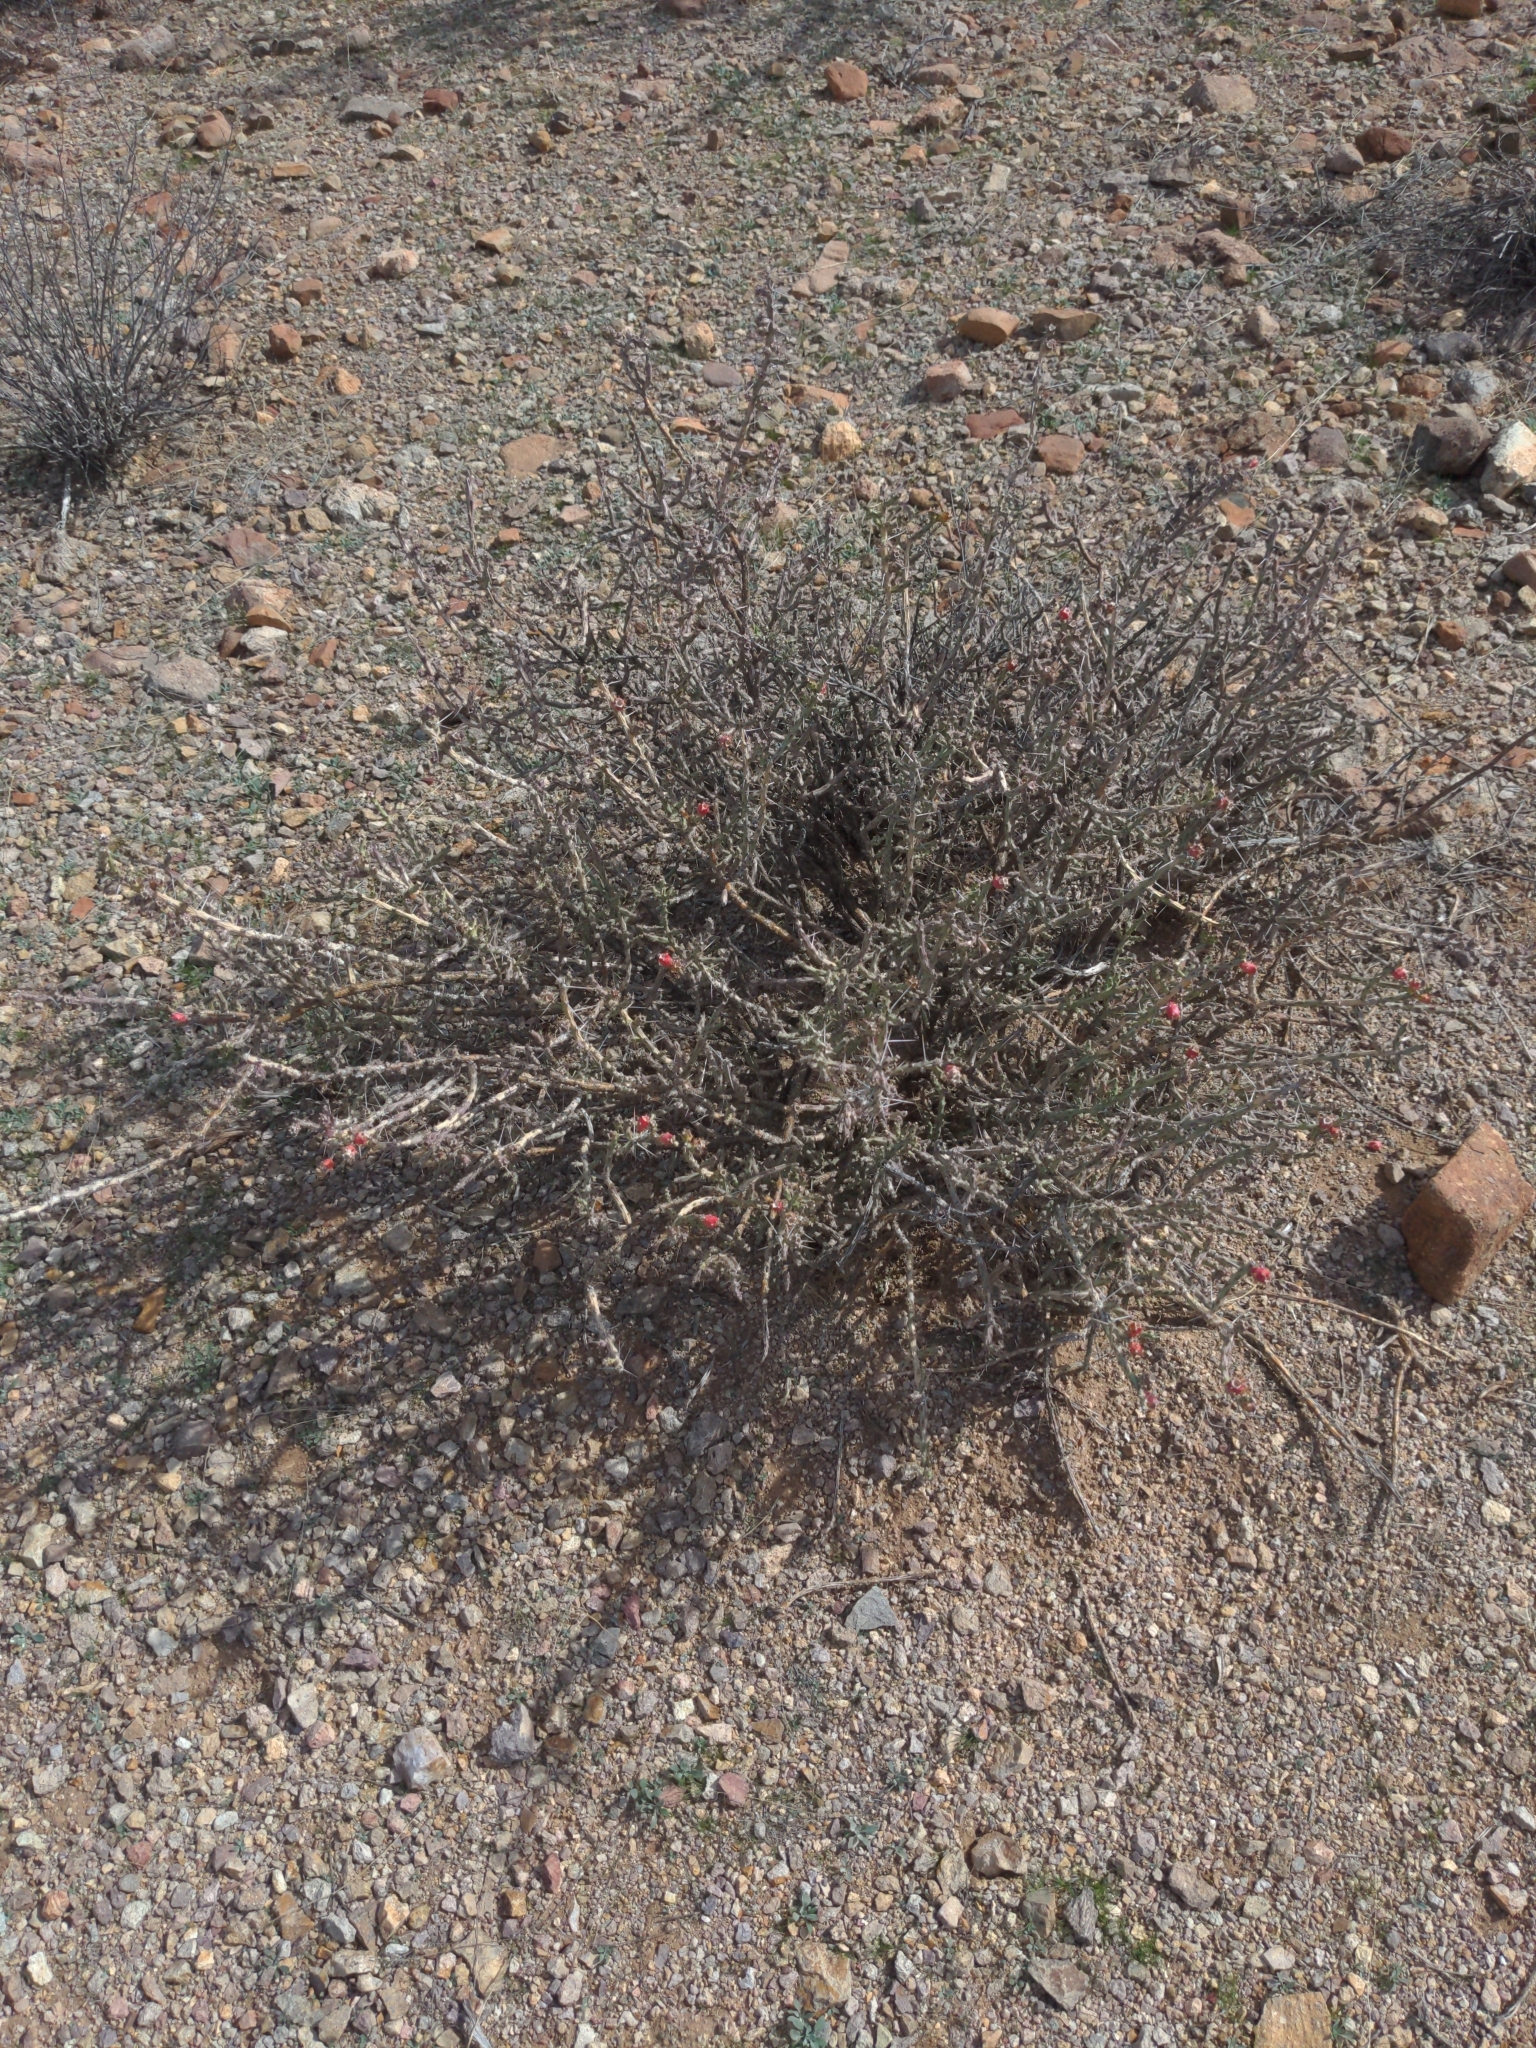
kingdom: Plantae
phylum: Tracheophyta
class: Magnoliopsida
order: Caryophyllales
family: Cactaceae
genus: Cylindropuntia
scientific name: Cylindropuntia leptocaulis
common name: Christmas cactus
